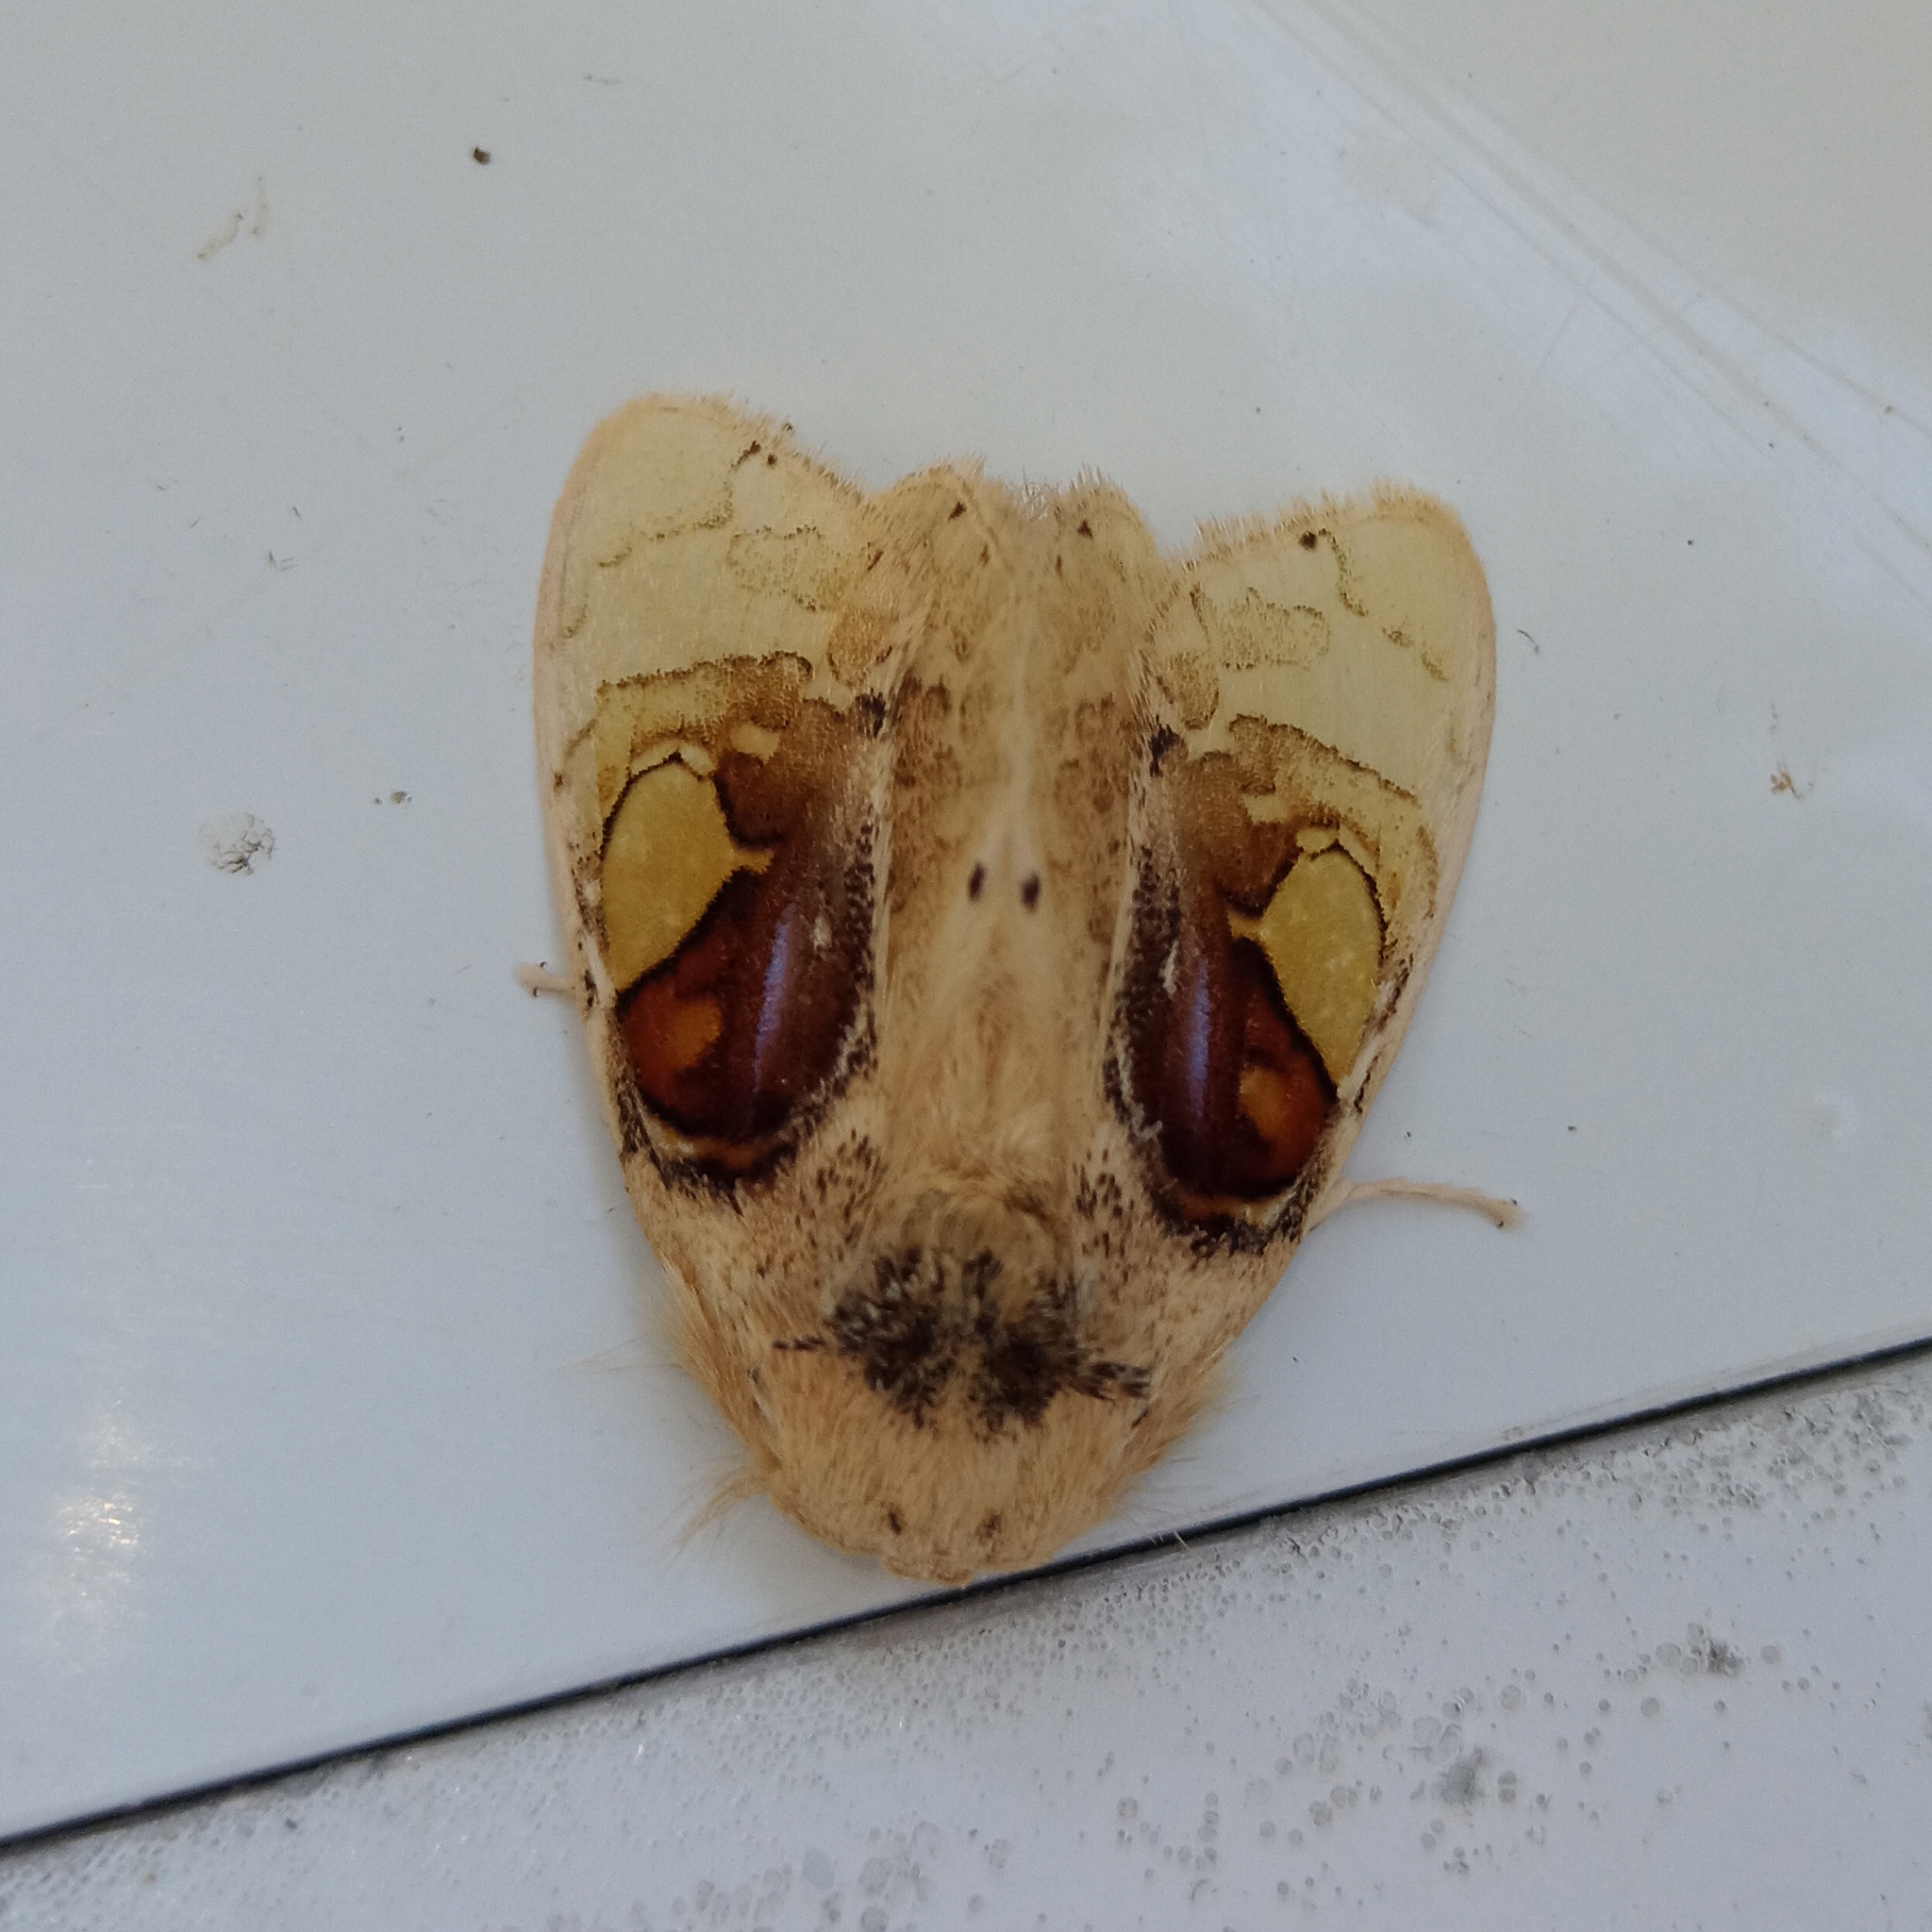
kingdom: Animalia
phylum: Arthropoda
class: Insecta
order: Lepidoptera
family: Psychidae
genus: Arrhenophanes
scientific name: Arrhenophanes perspicilla
